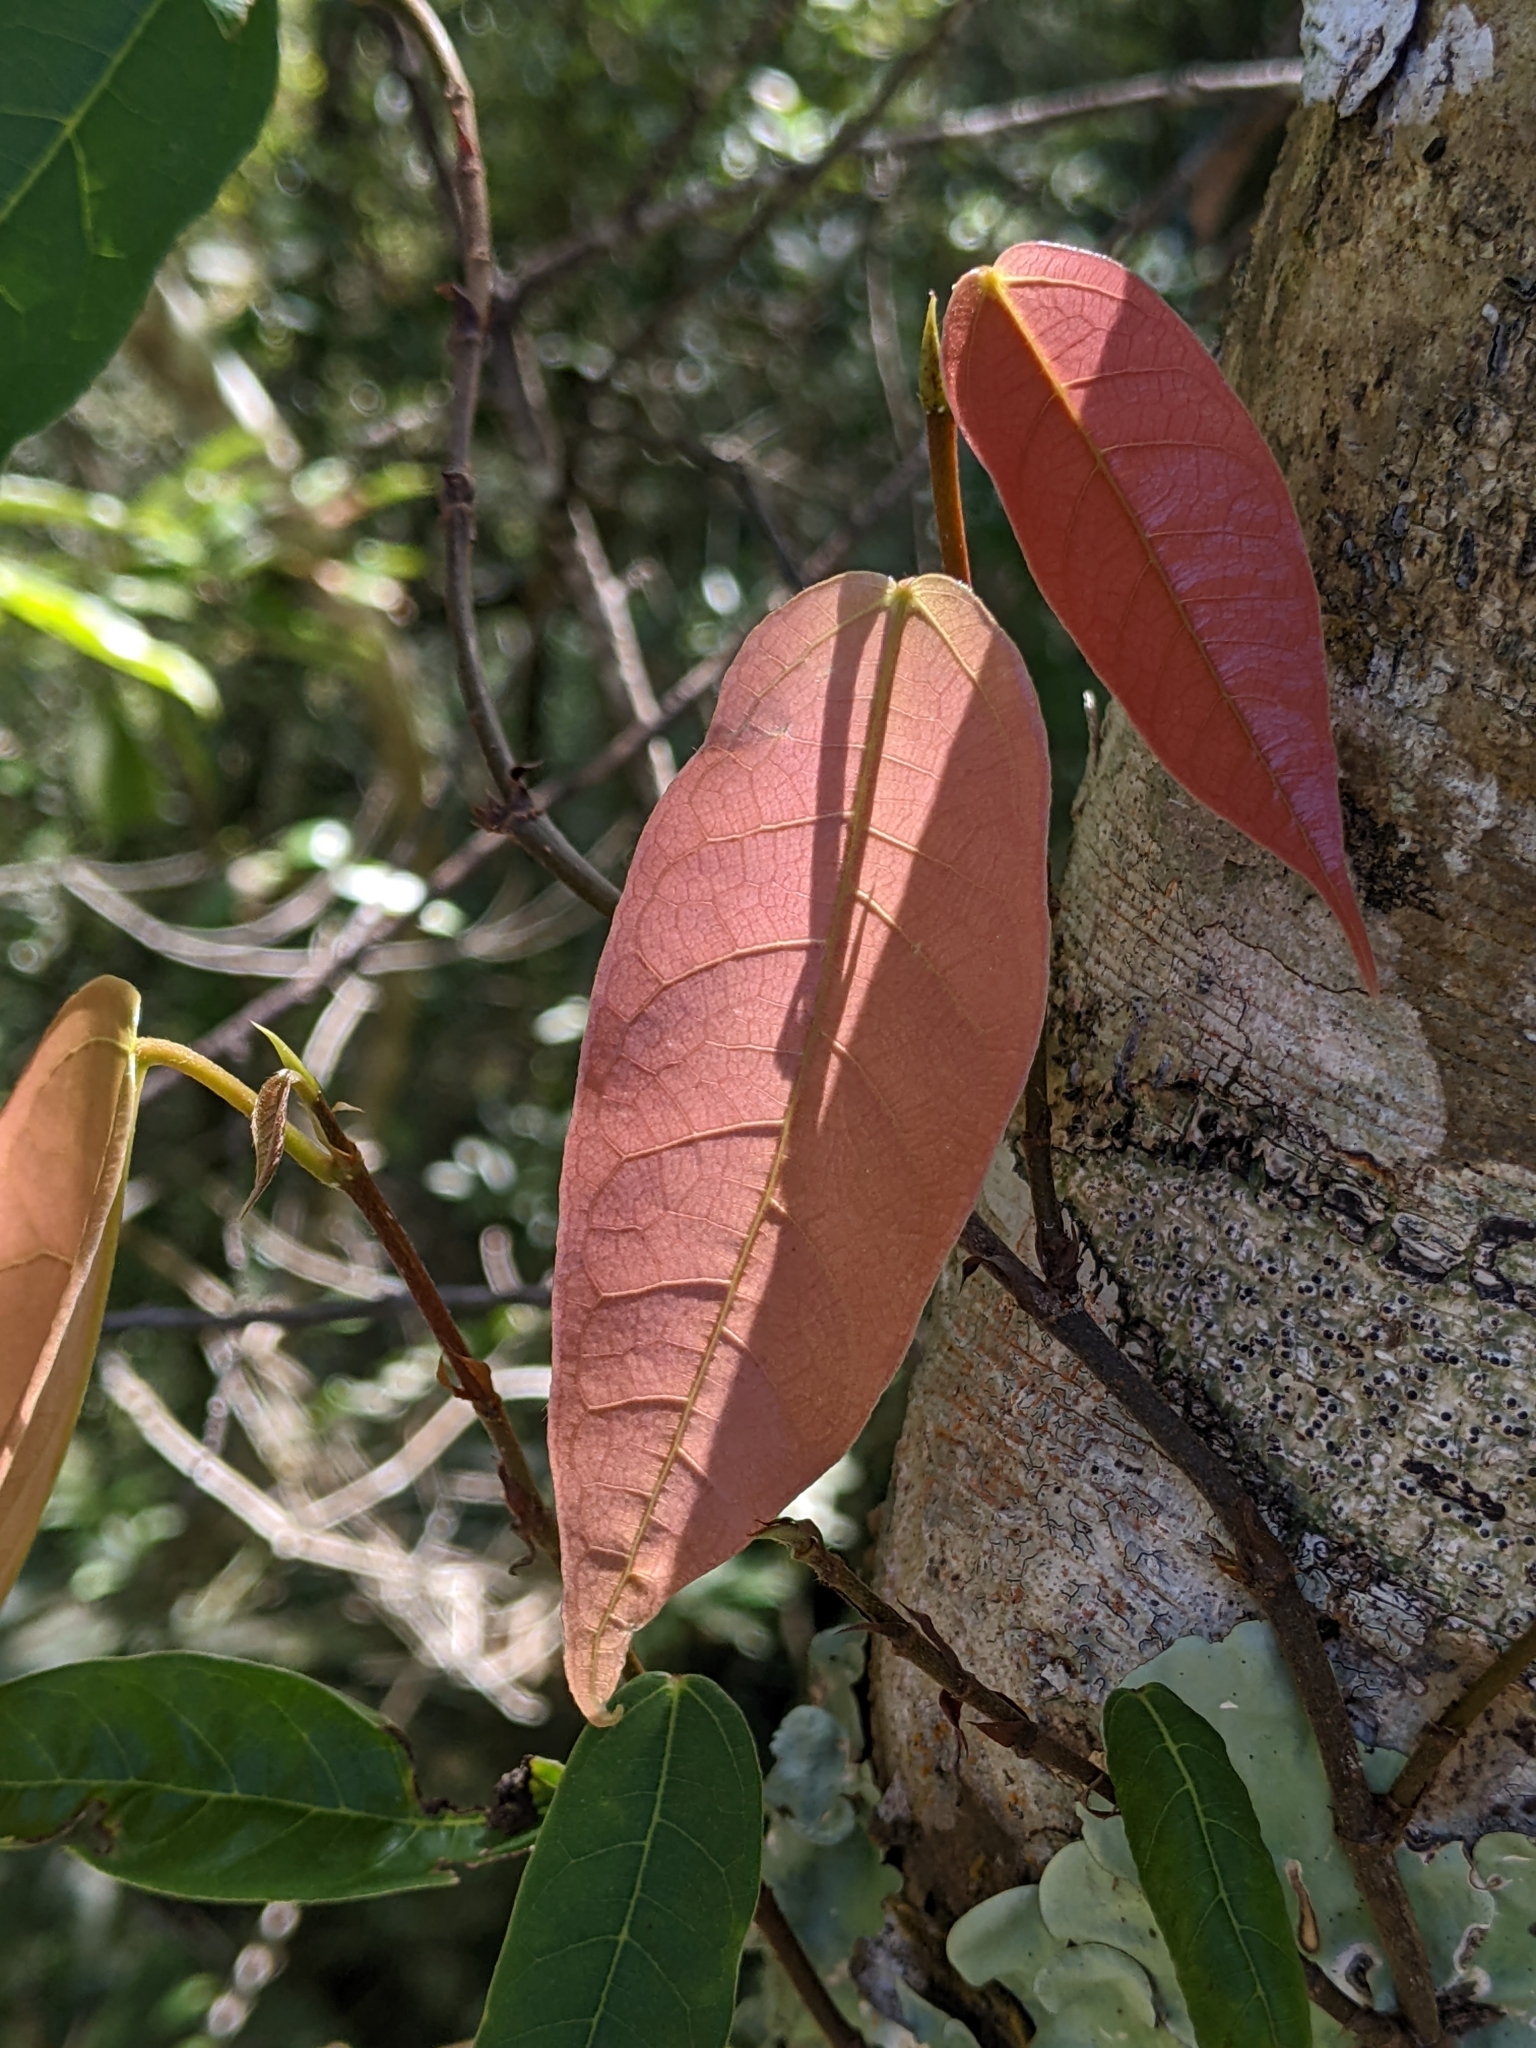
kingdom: Plantae
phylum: Tracheophyta
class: Magnoliopsida
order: Rosales
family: Moraceae
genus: Ficus
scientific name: Ficus sarmentosa
